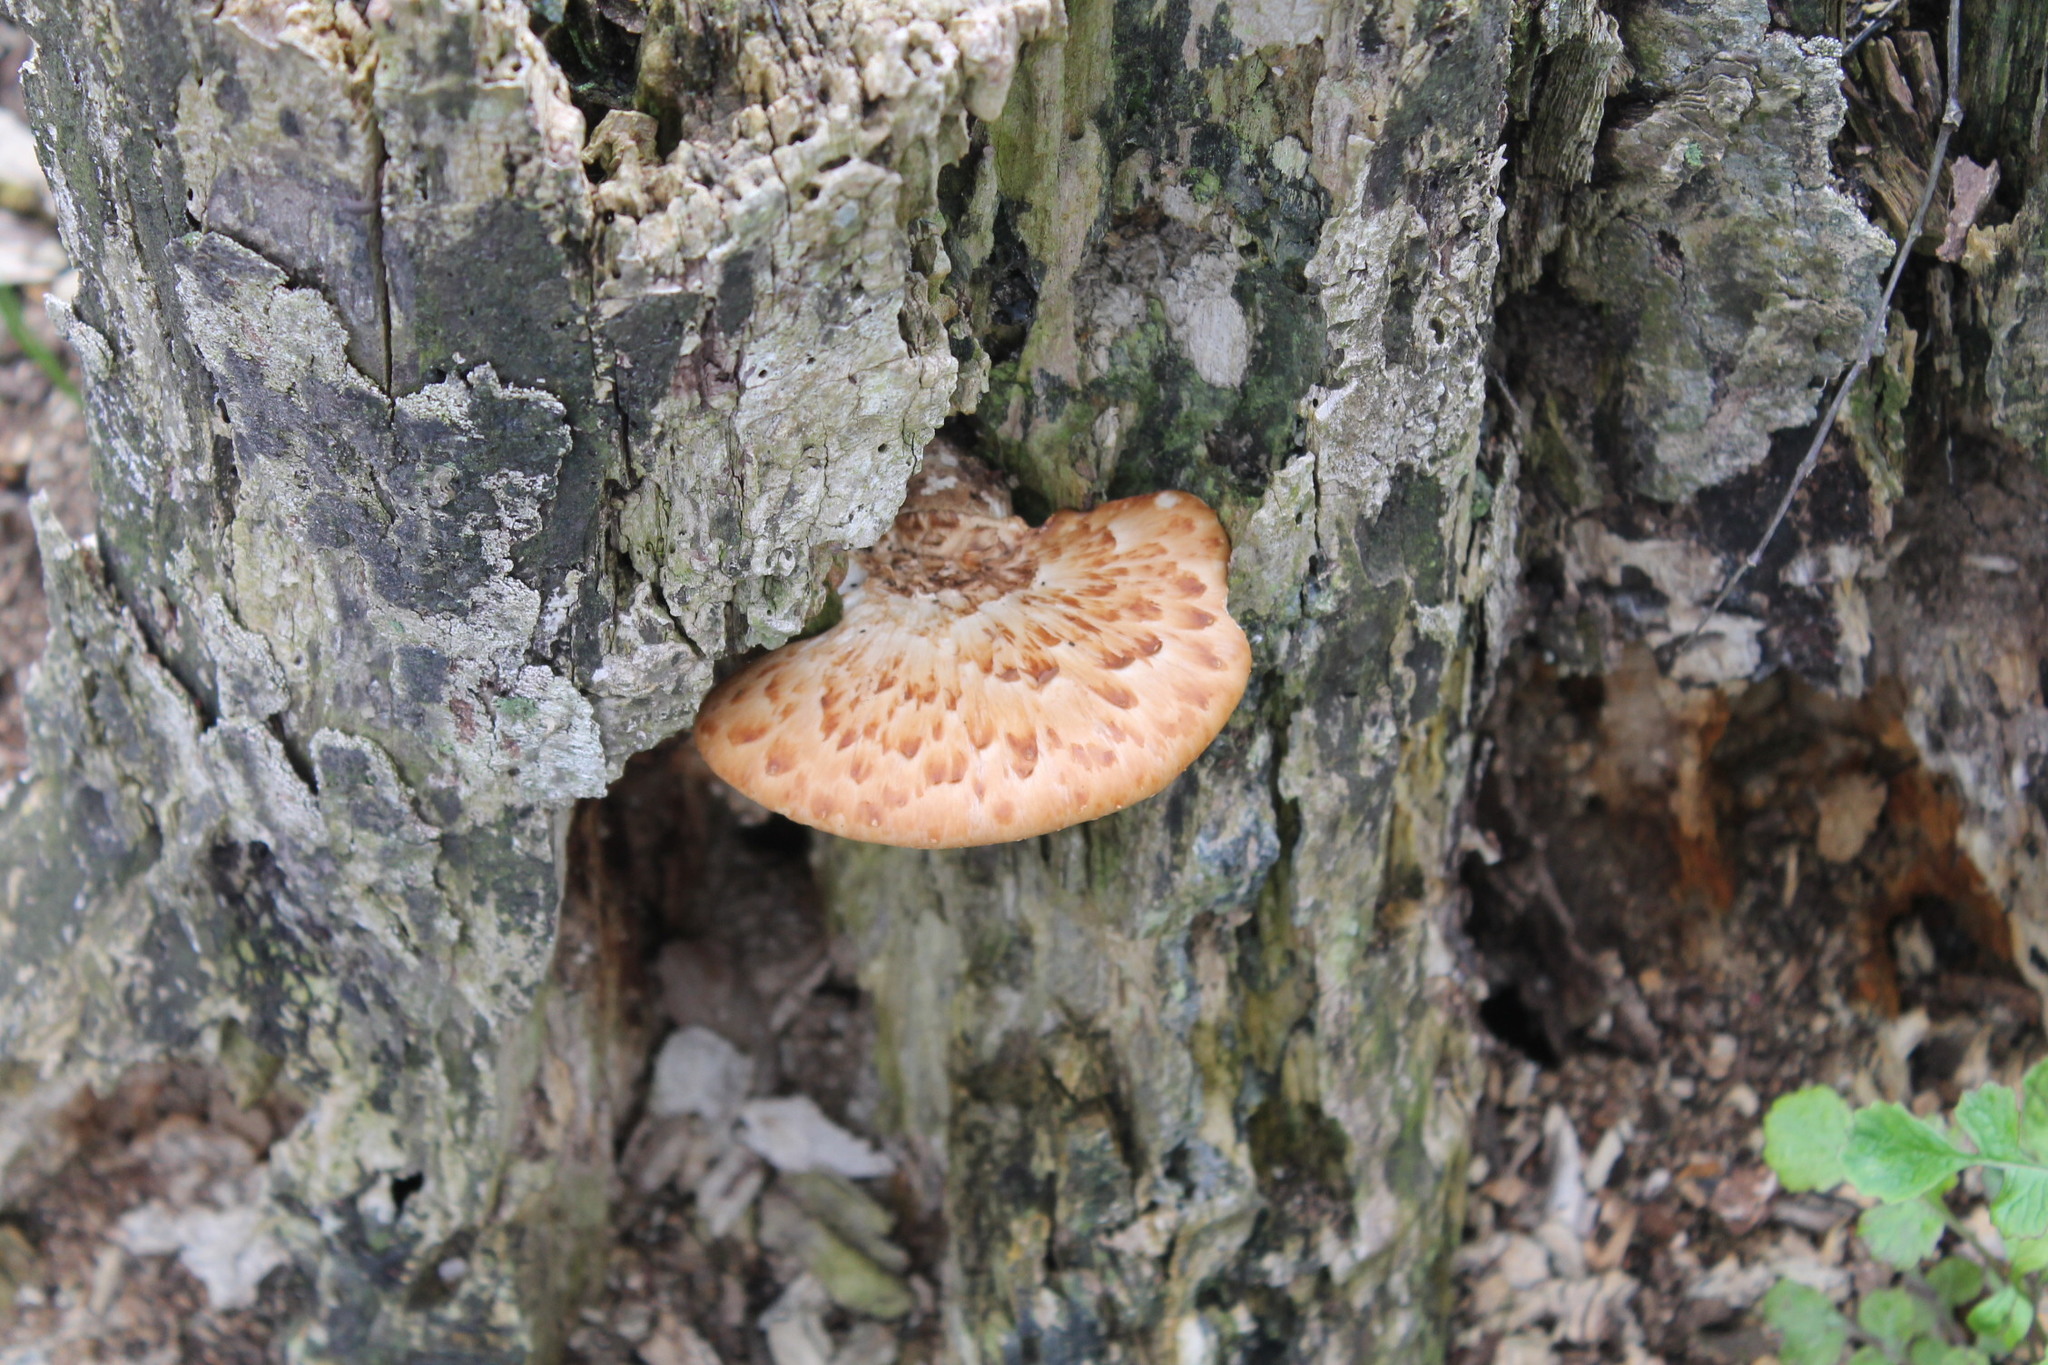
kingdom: Fungi
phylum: Basidiomycota
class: Agaricomycetes
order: Polyporales
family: Polyporaceae
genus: Cerioporus
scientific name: Cerioporus squamosus
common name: Dryad's saddle
